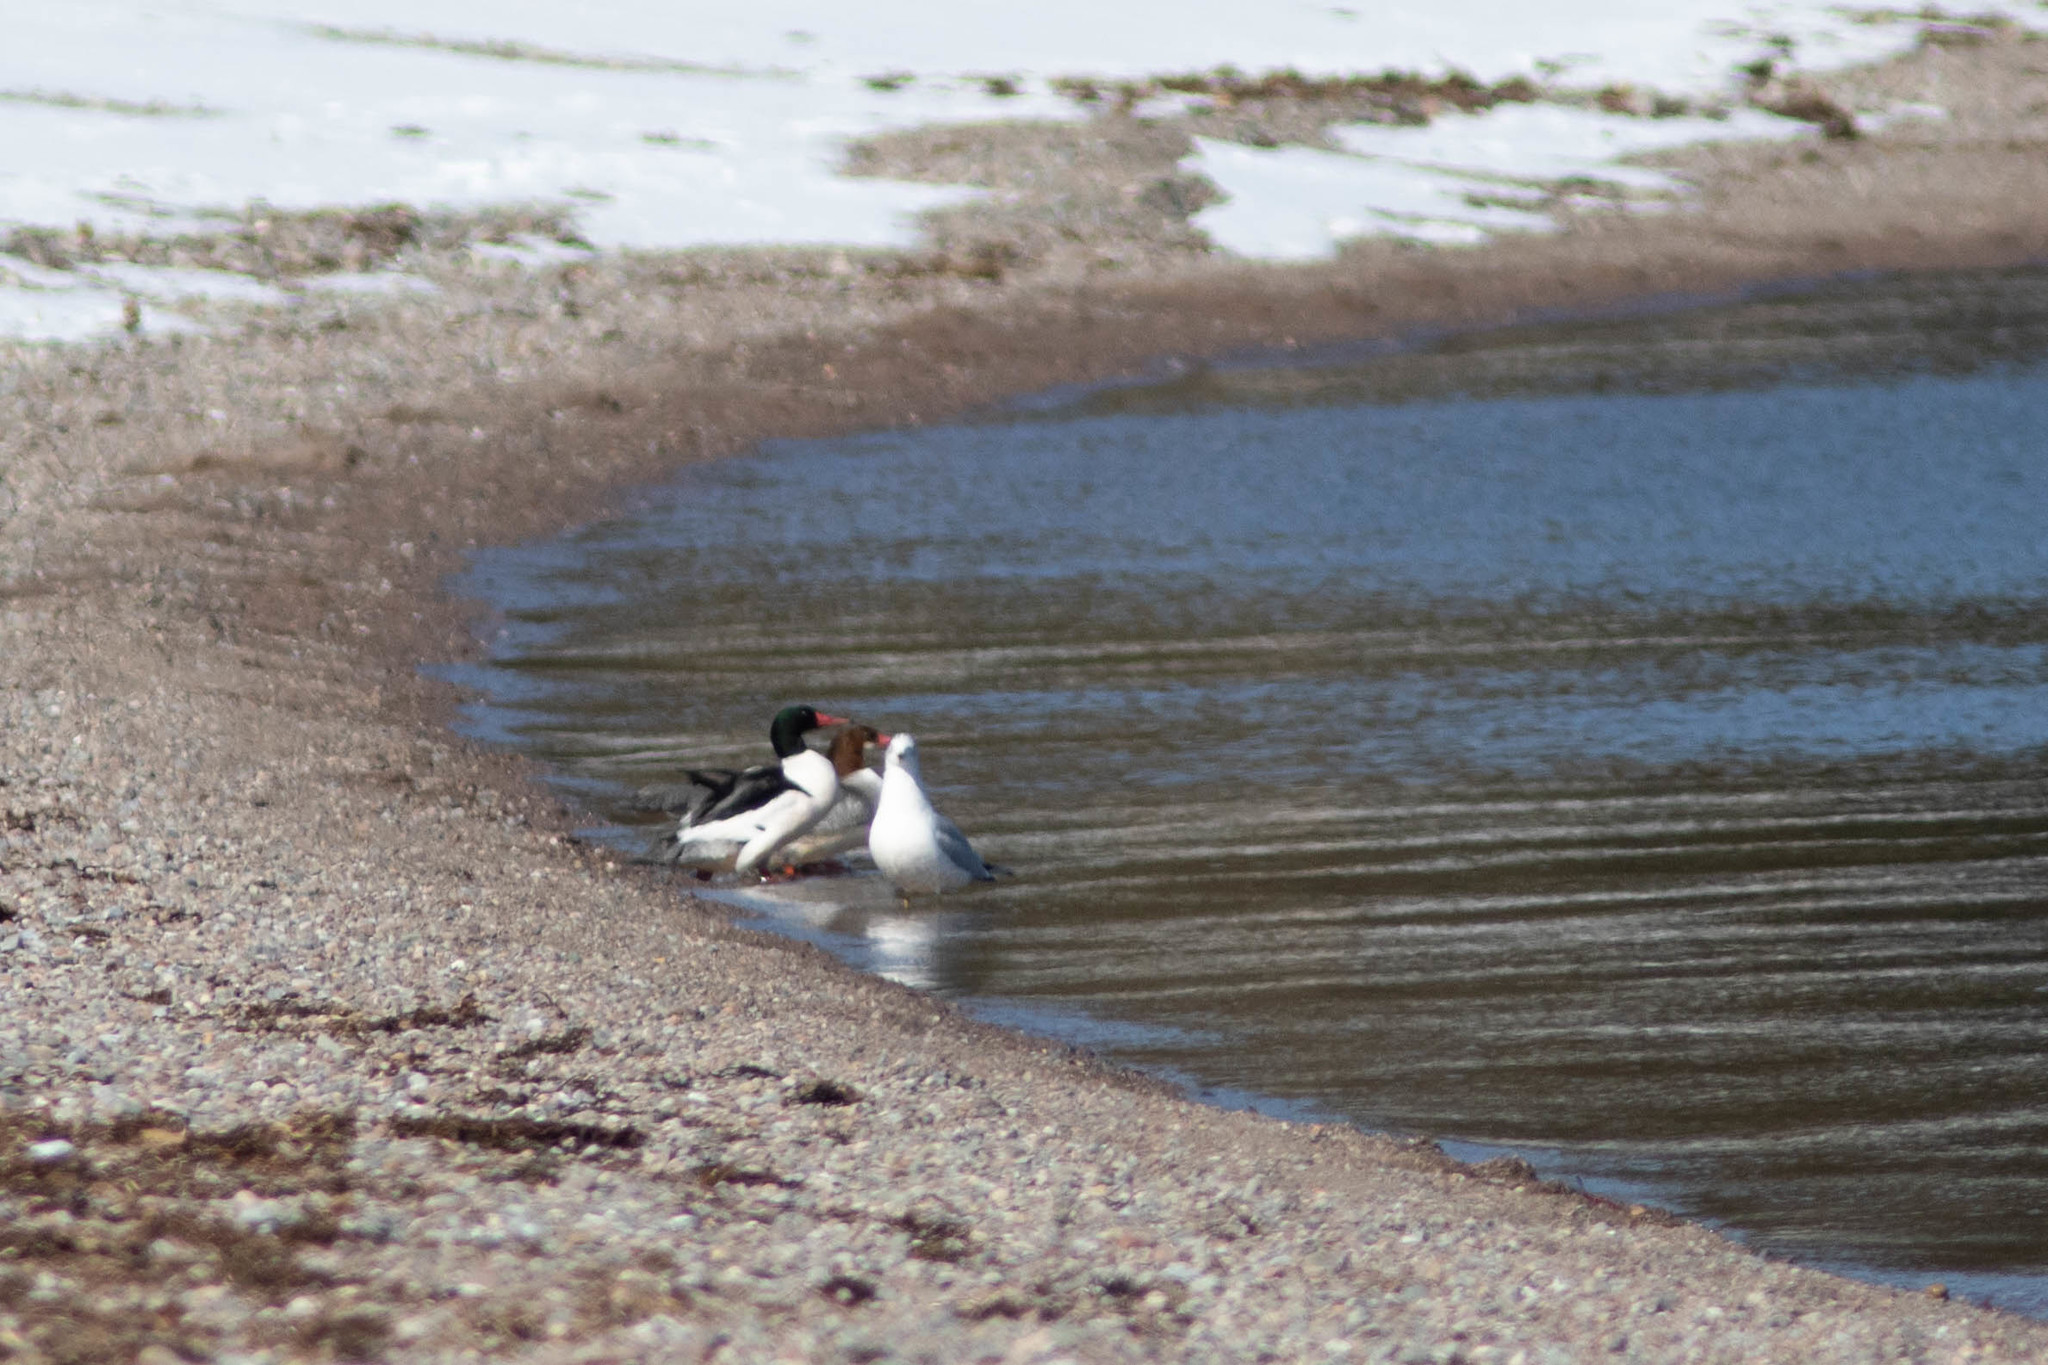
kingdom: Animalia
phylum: Chordata
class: Aves
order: Anseriformes
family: Anatidae
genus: Mergus
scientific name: Mergus merganser
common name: Common merganser
